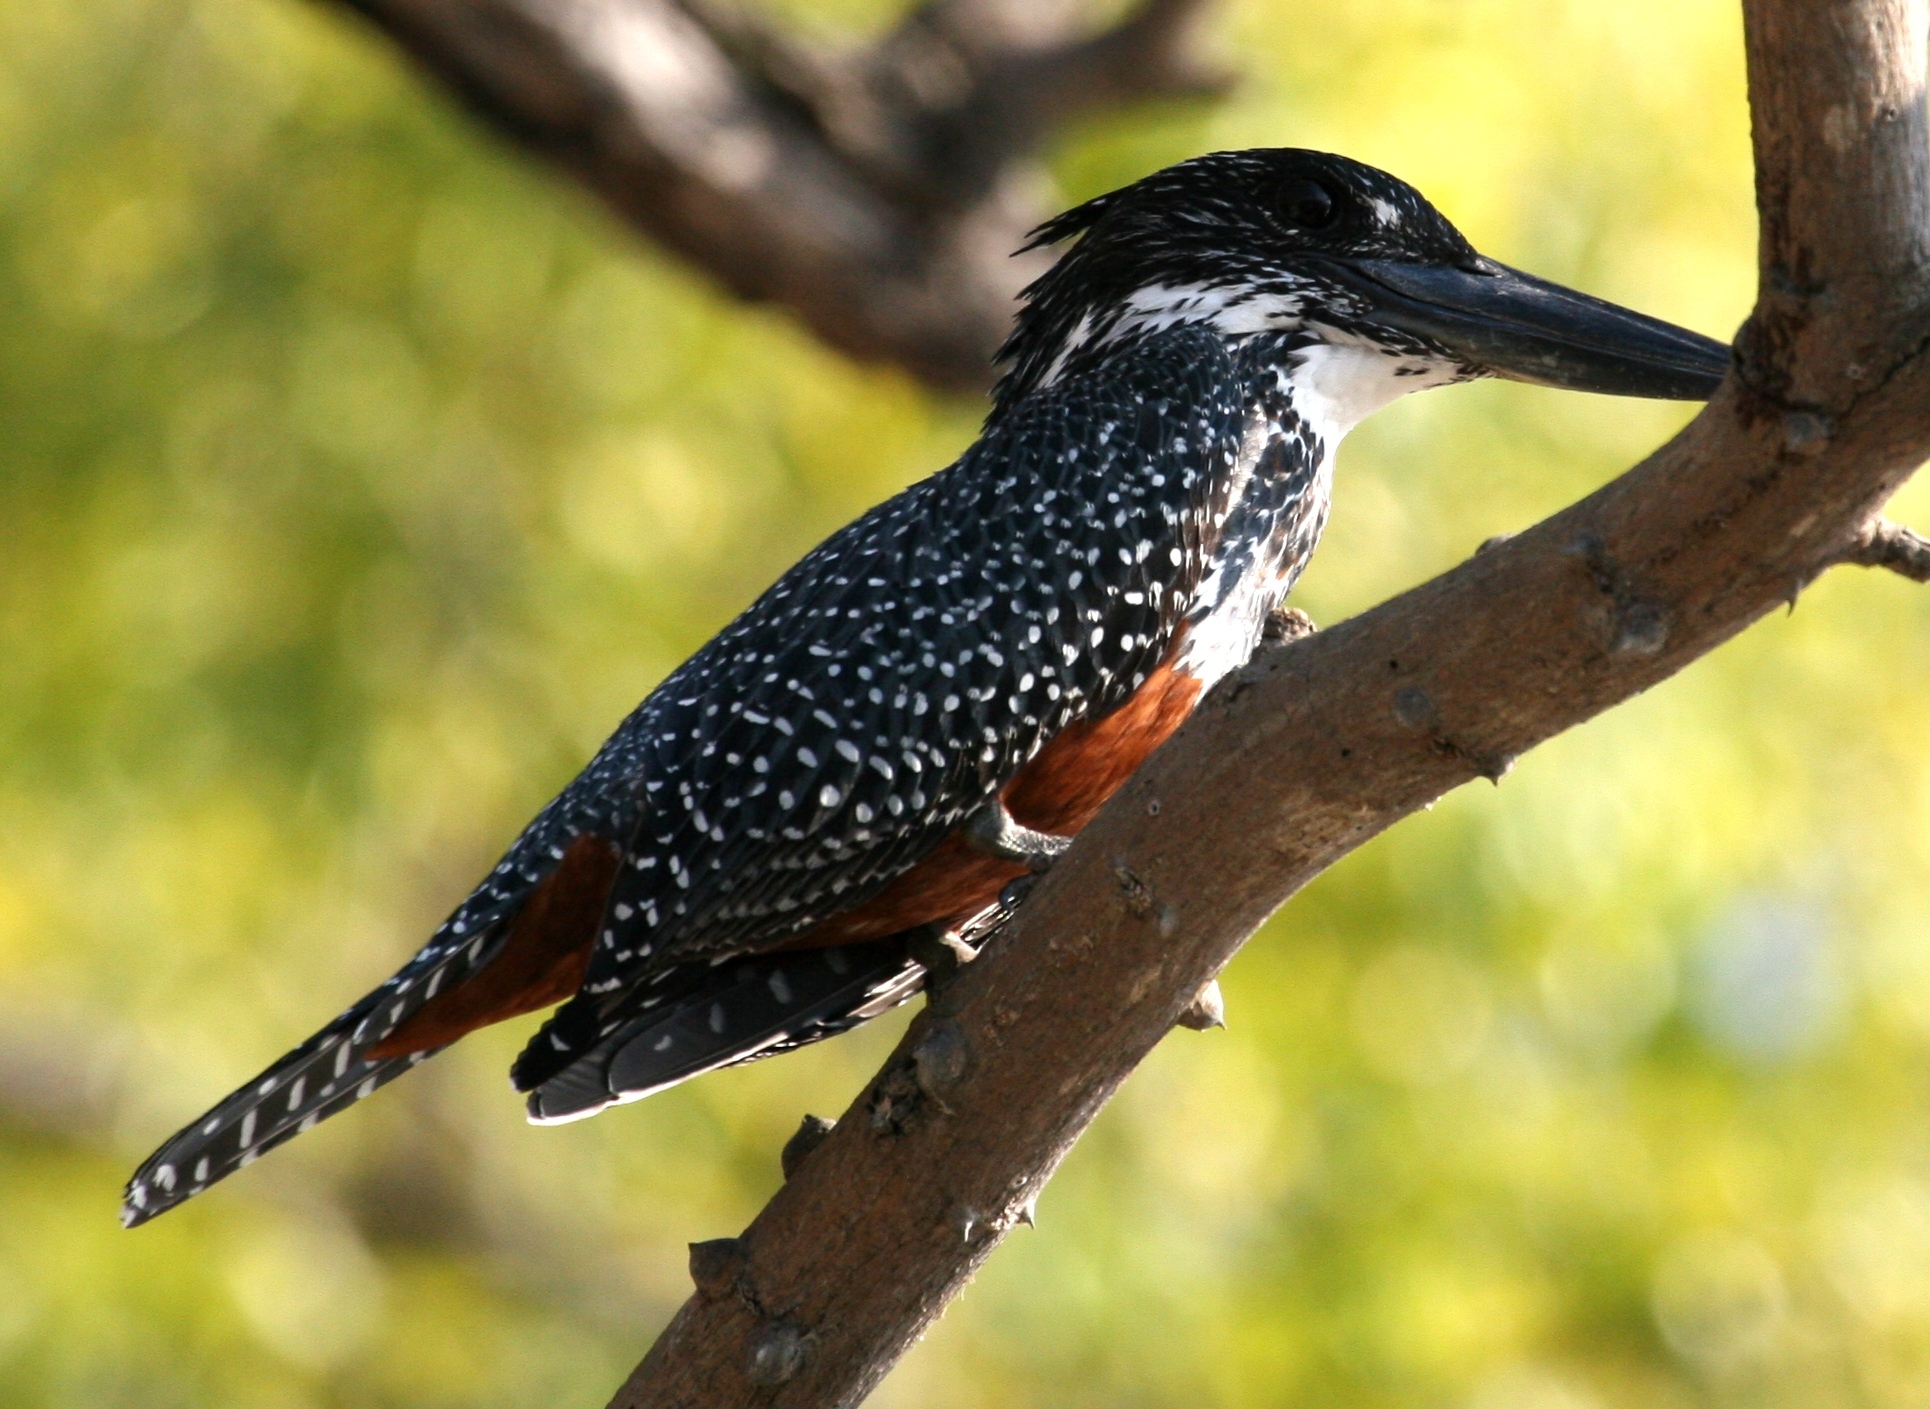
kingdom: Animalia
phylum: Chordata
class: Aves
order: Coraciiformes
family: Alcedinidae
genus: Megaceryle
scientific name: Megaceryle maxima
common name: Giant kingfisher
